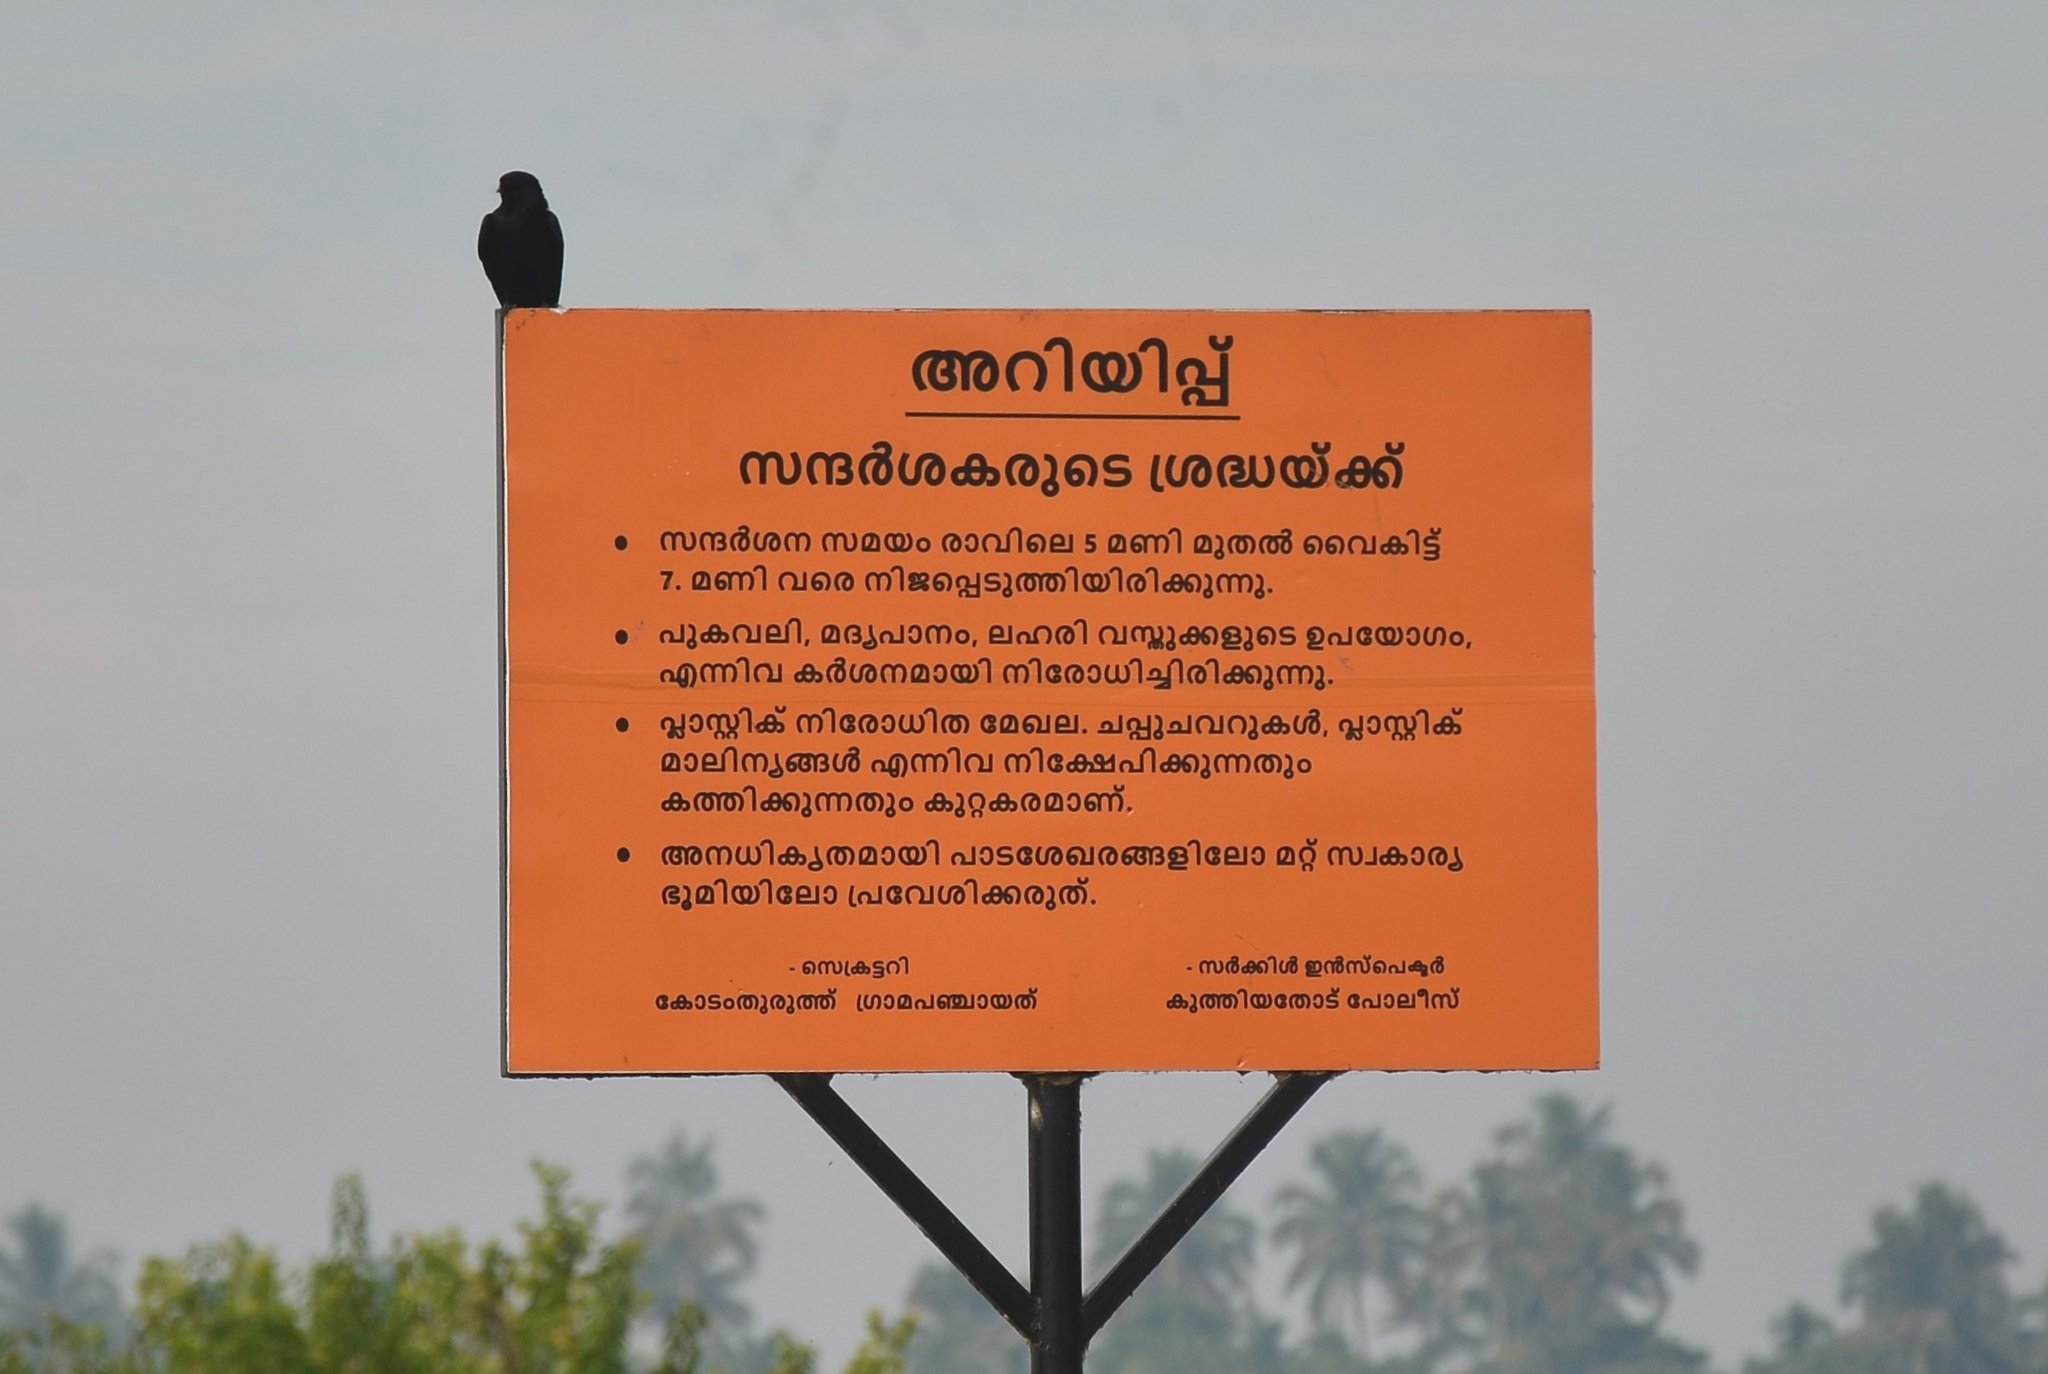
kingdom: Animalia
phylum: Chordata
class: Aves
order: Passeriformes
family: Dicruridae
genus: Dicrurus
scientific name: Dicrurus macrocercus
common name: Black drongo
